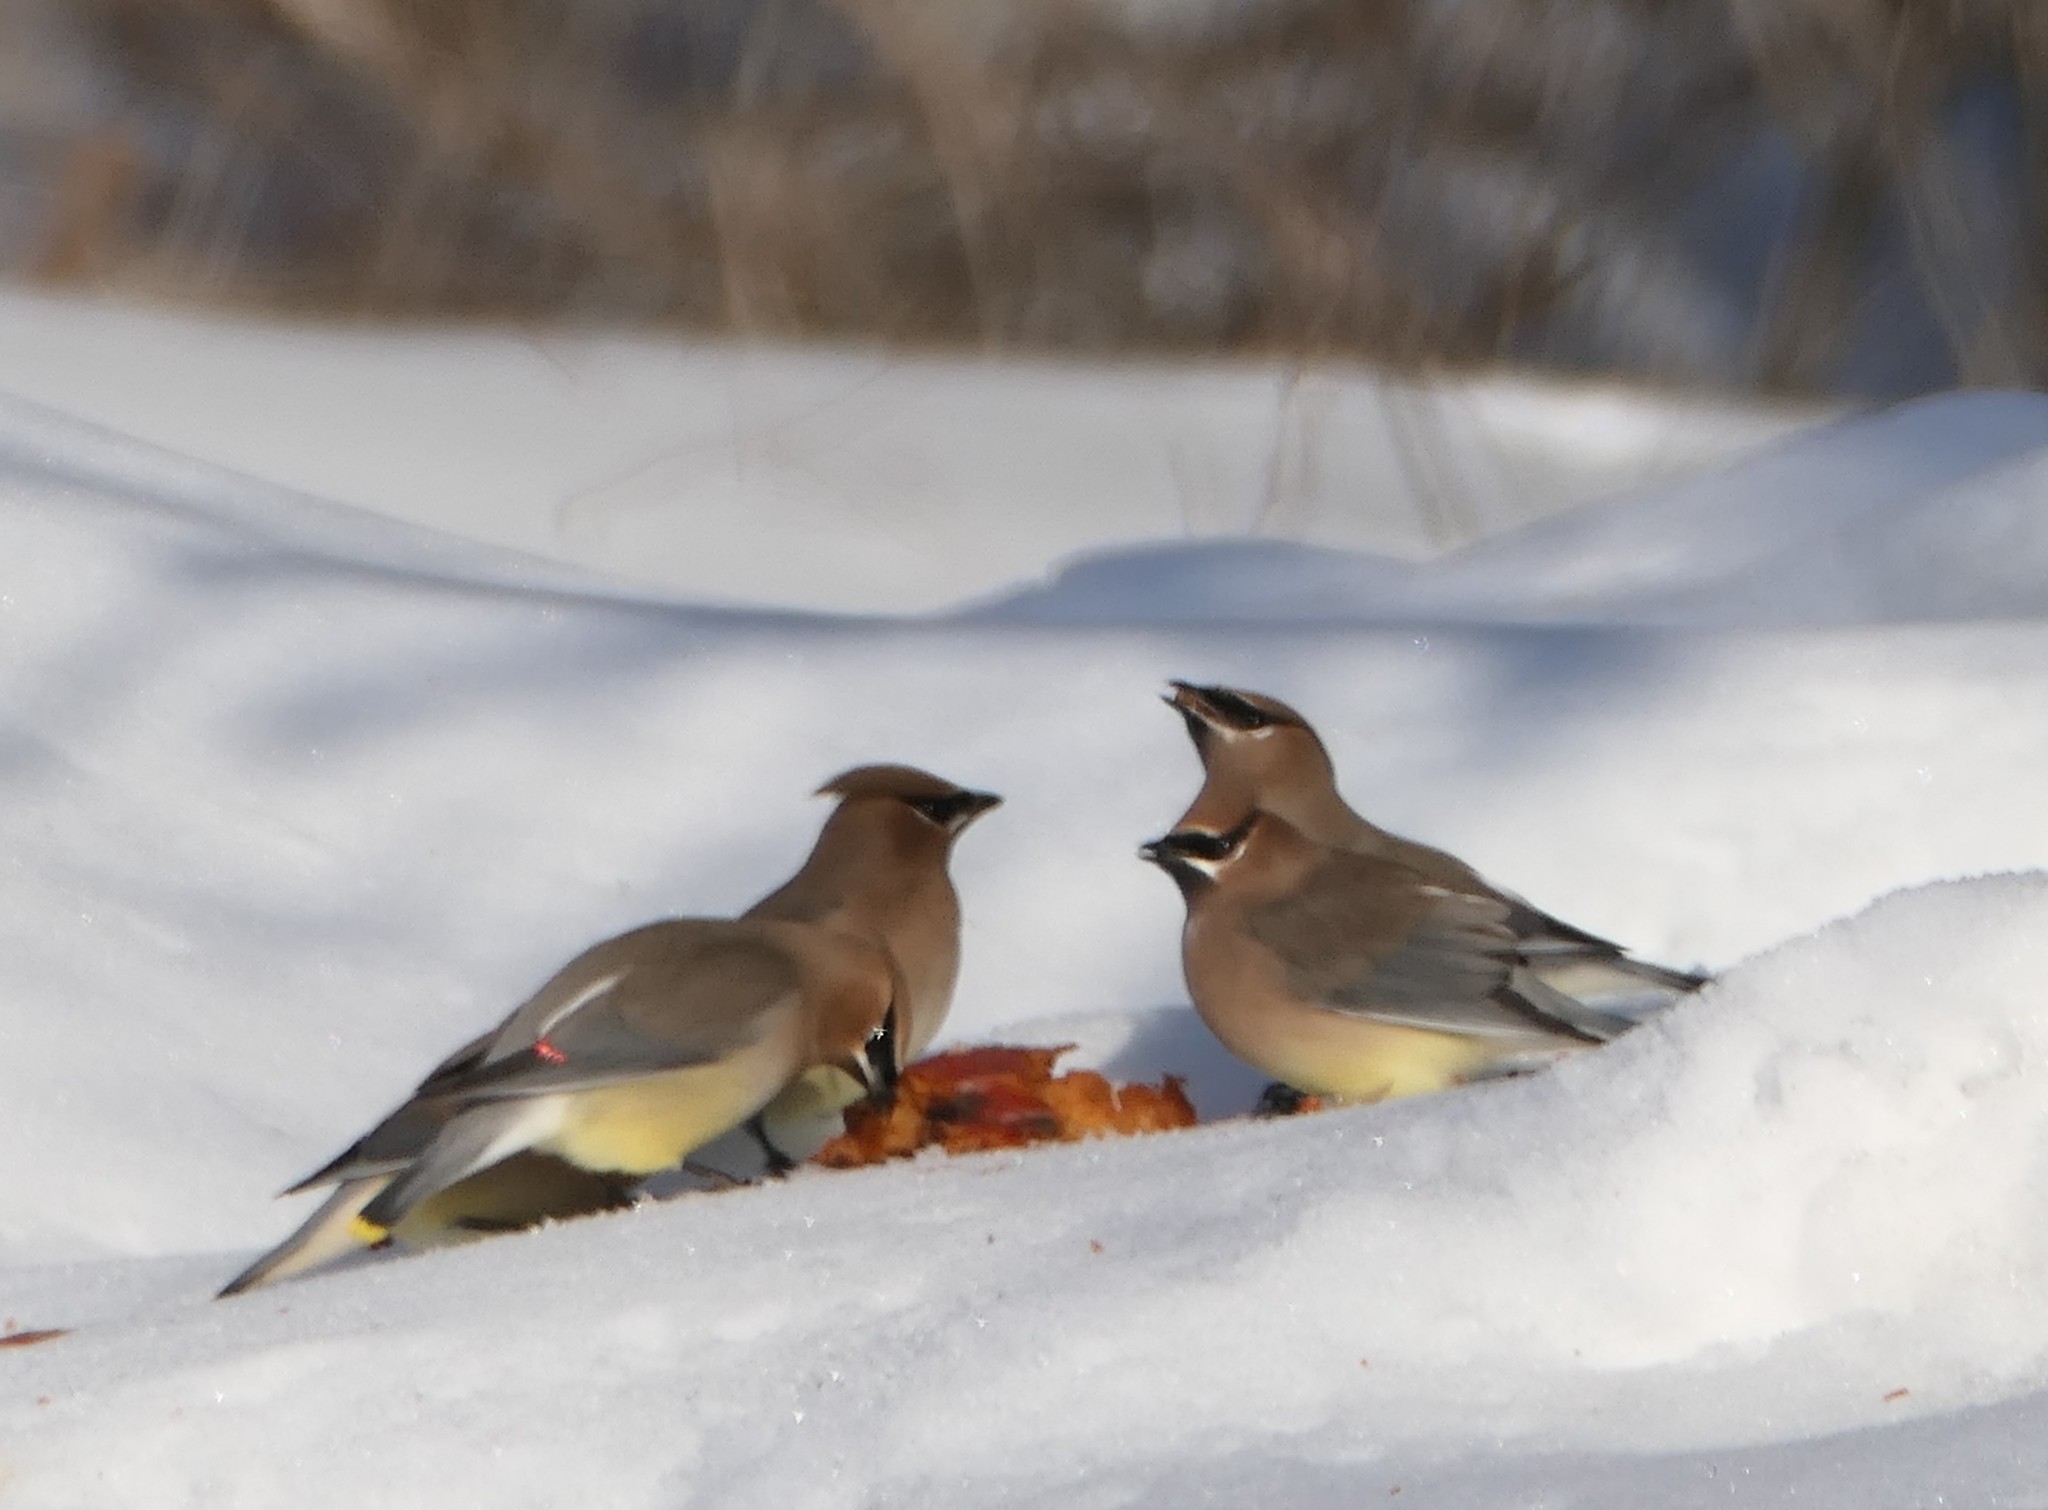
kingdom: Animalia
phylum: Chordata
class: Aves
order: Passeriformes
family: Bombycillidae
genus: Bombycilla
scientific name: Bombycilla cedrorum
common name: Cedar waxwing
